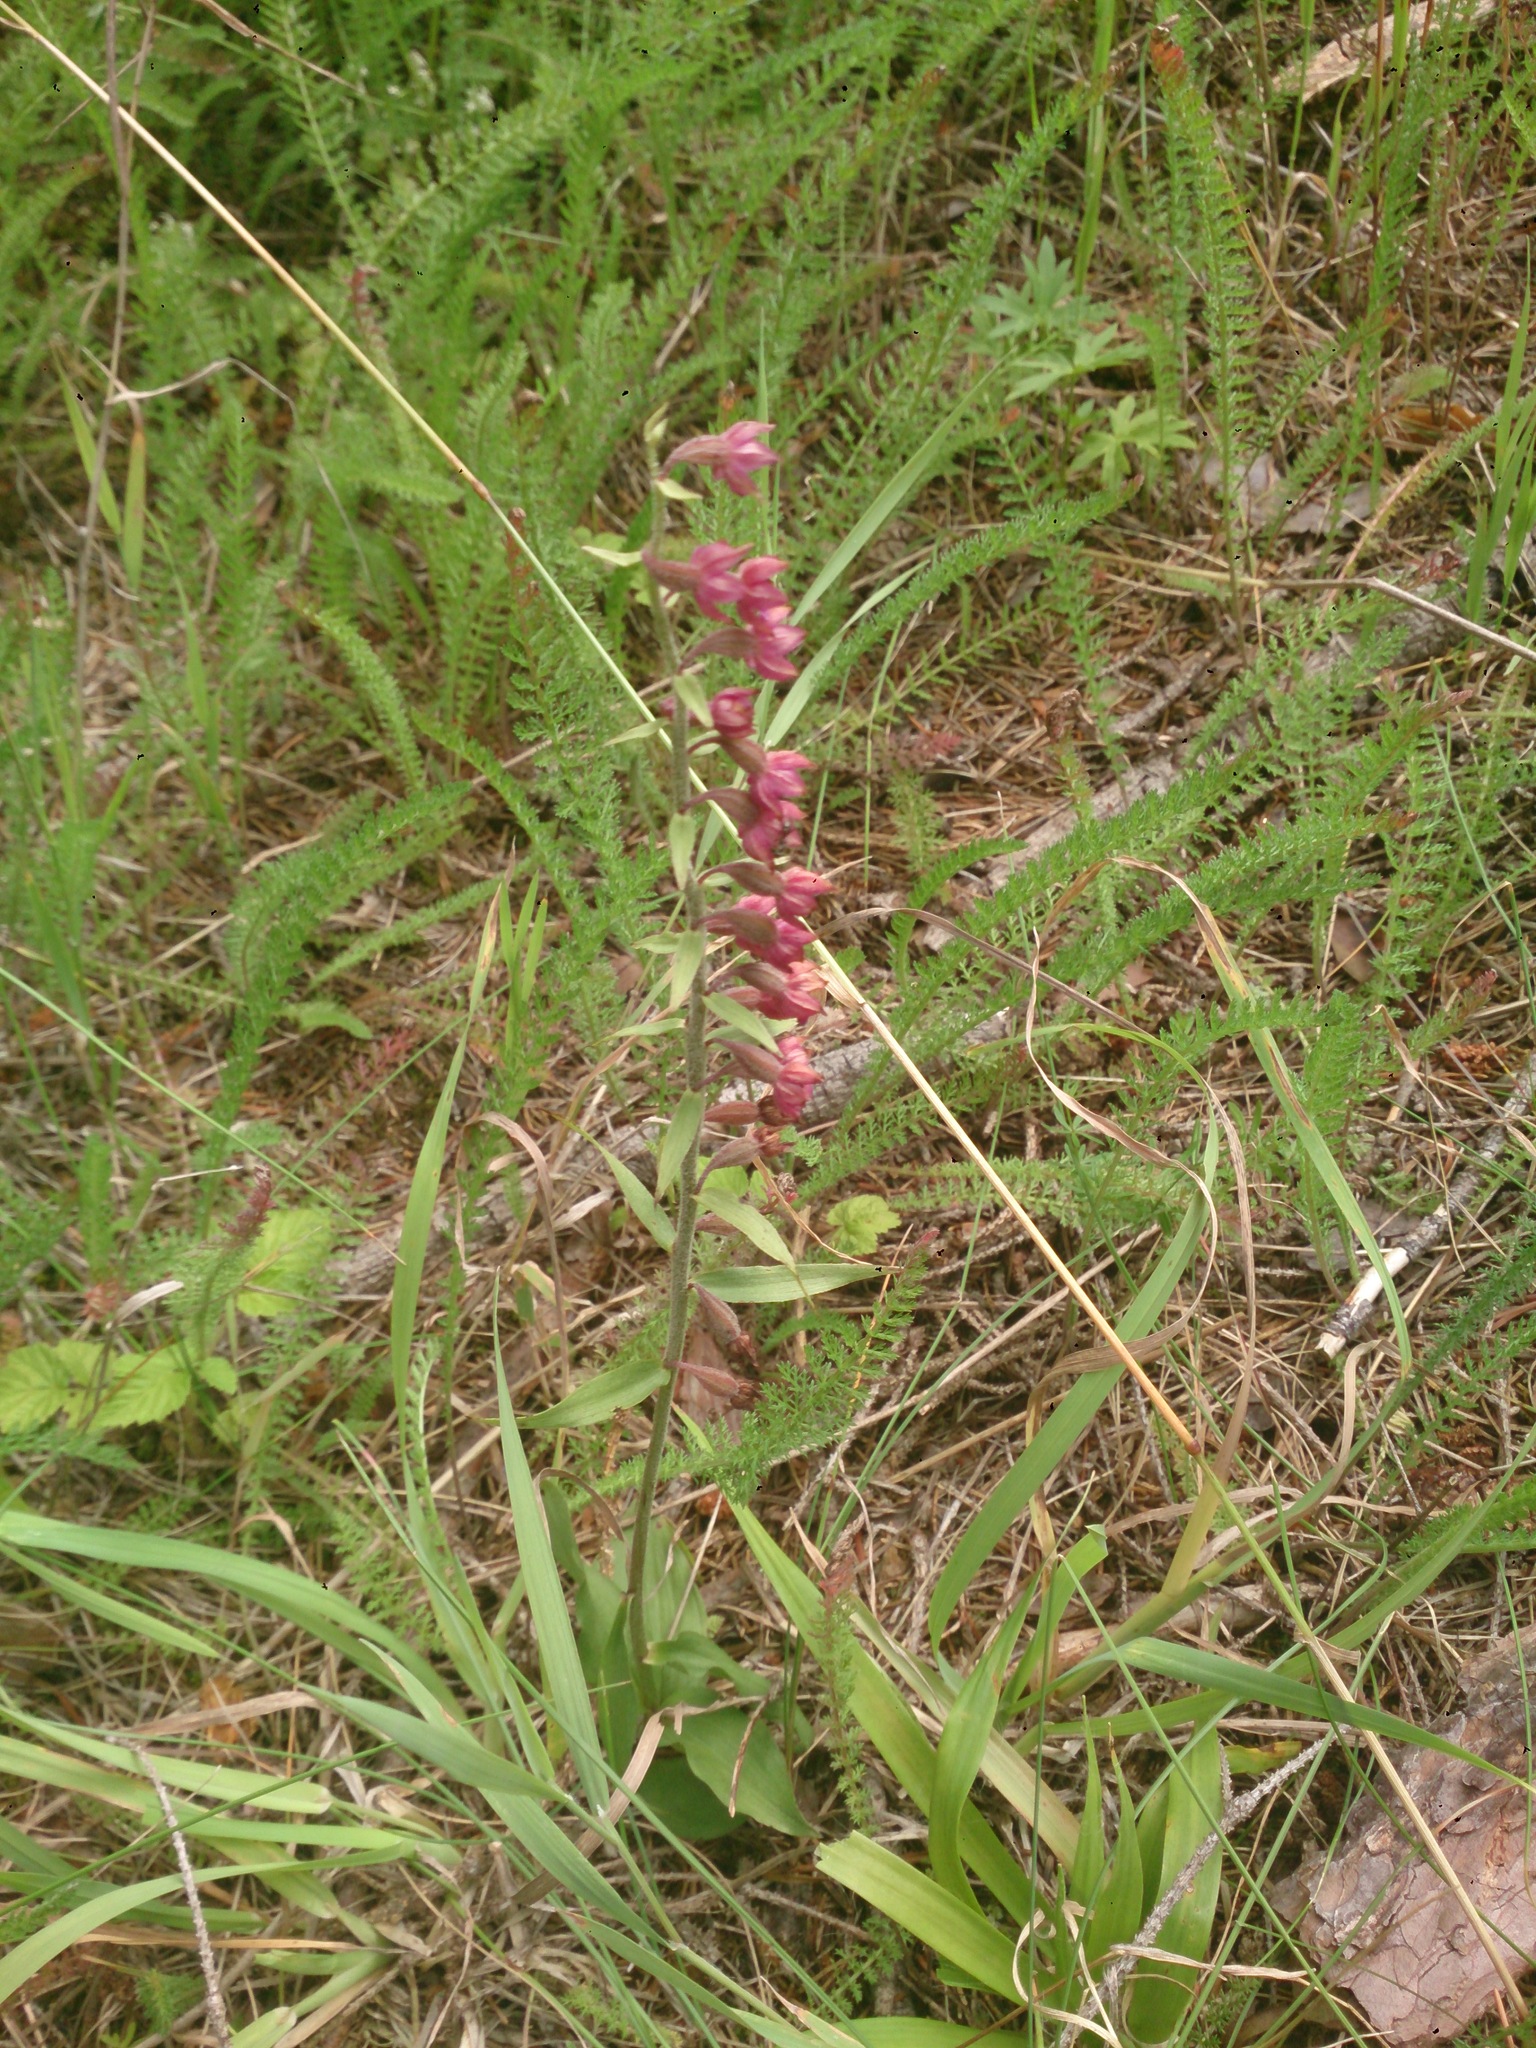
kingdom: Plantae
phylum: Tracheophyta
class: Liliopsida
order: Asparagales
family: Orchidaceae
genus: Epipactis
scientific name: Epipactis atrorubens
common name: Dark-red helleborine
